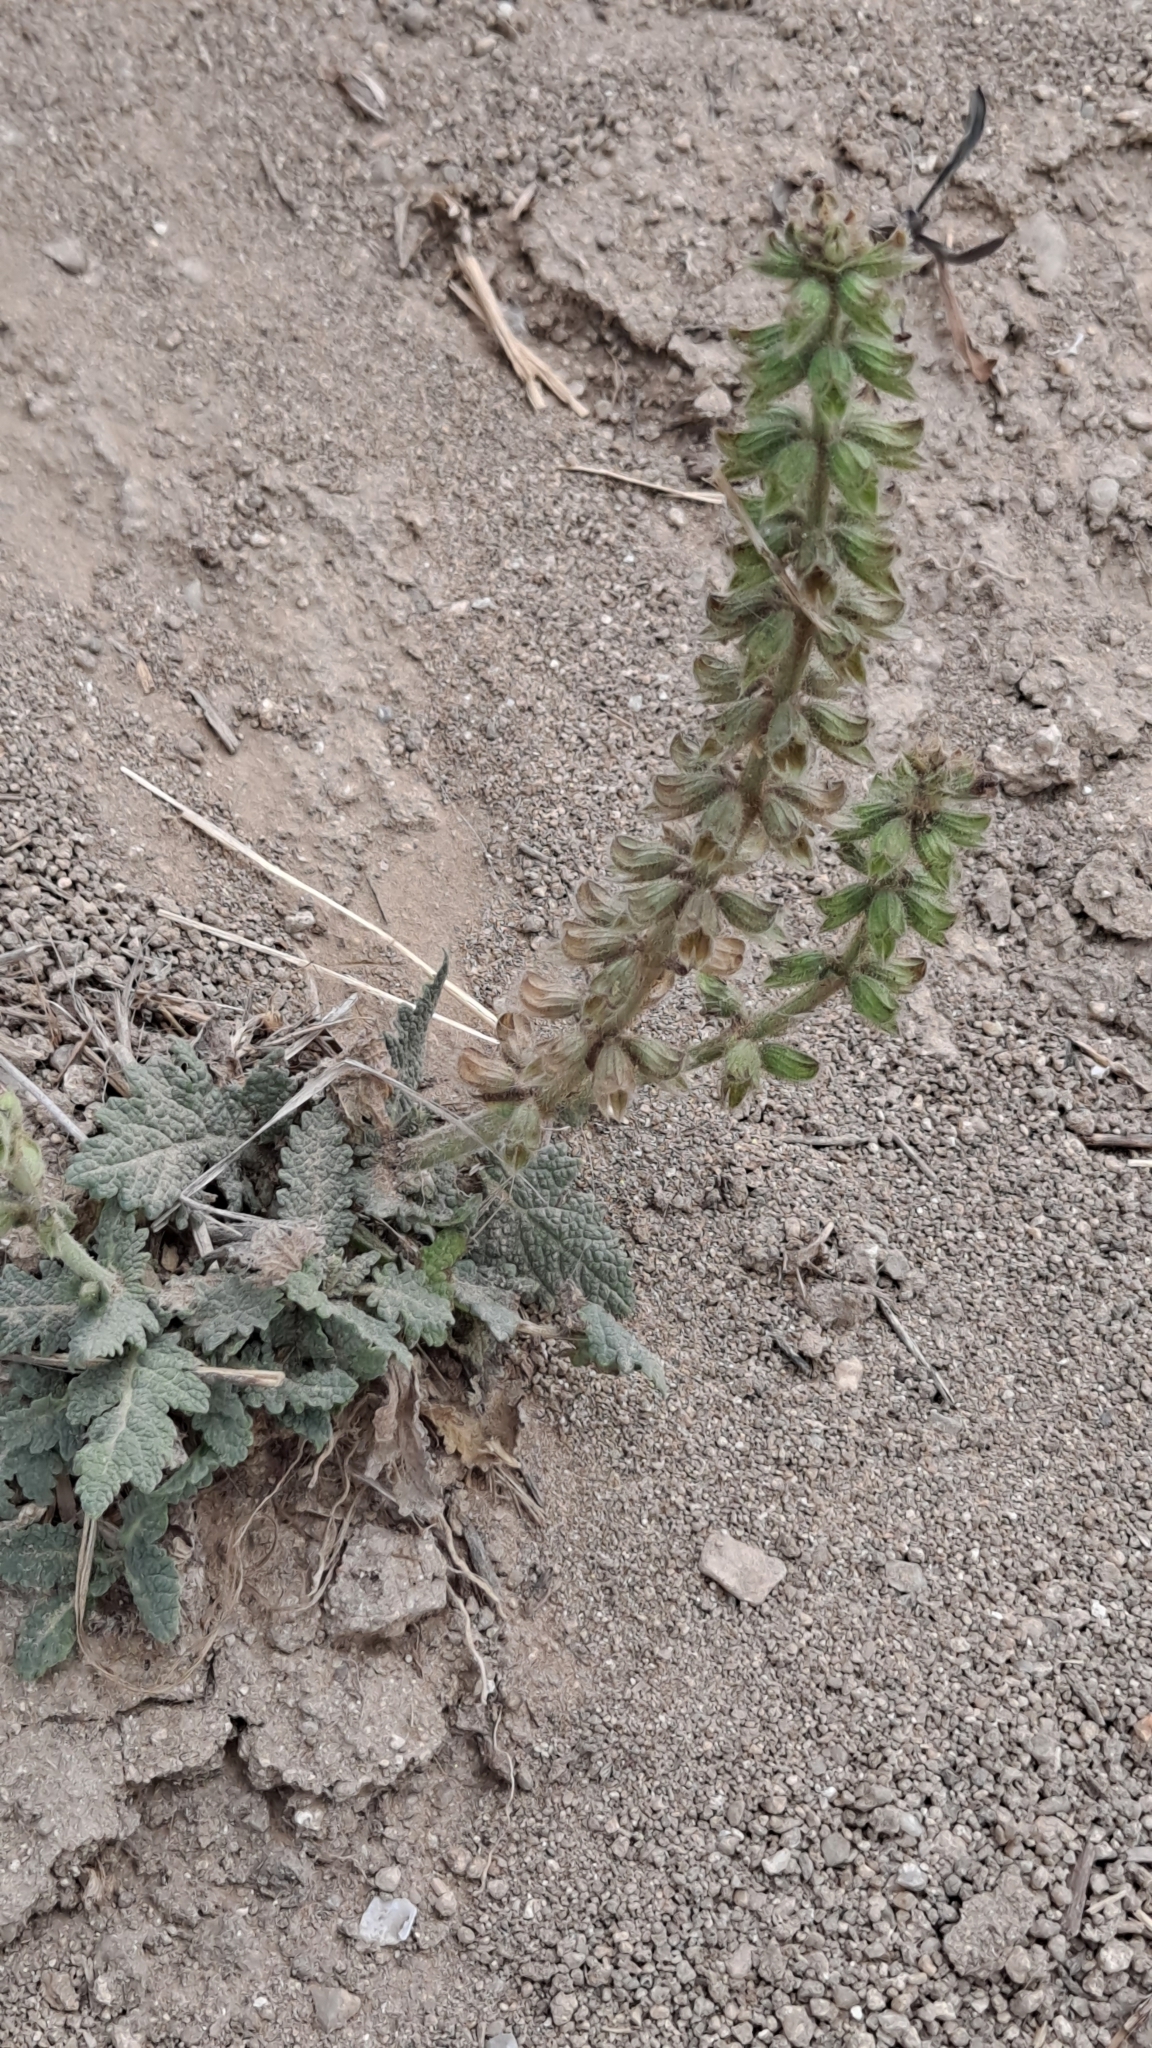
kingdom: Plantae
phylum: Tracheophyta
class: Magnoliopsida
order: Lamiales
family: Lamiaceae
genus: Salvia
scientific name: Salvia verbenaca
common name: Wild clary
